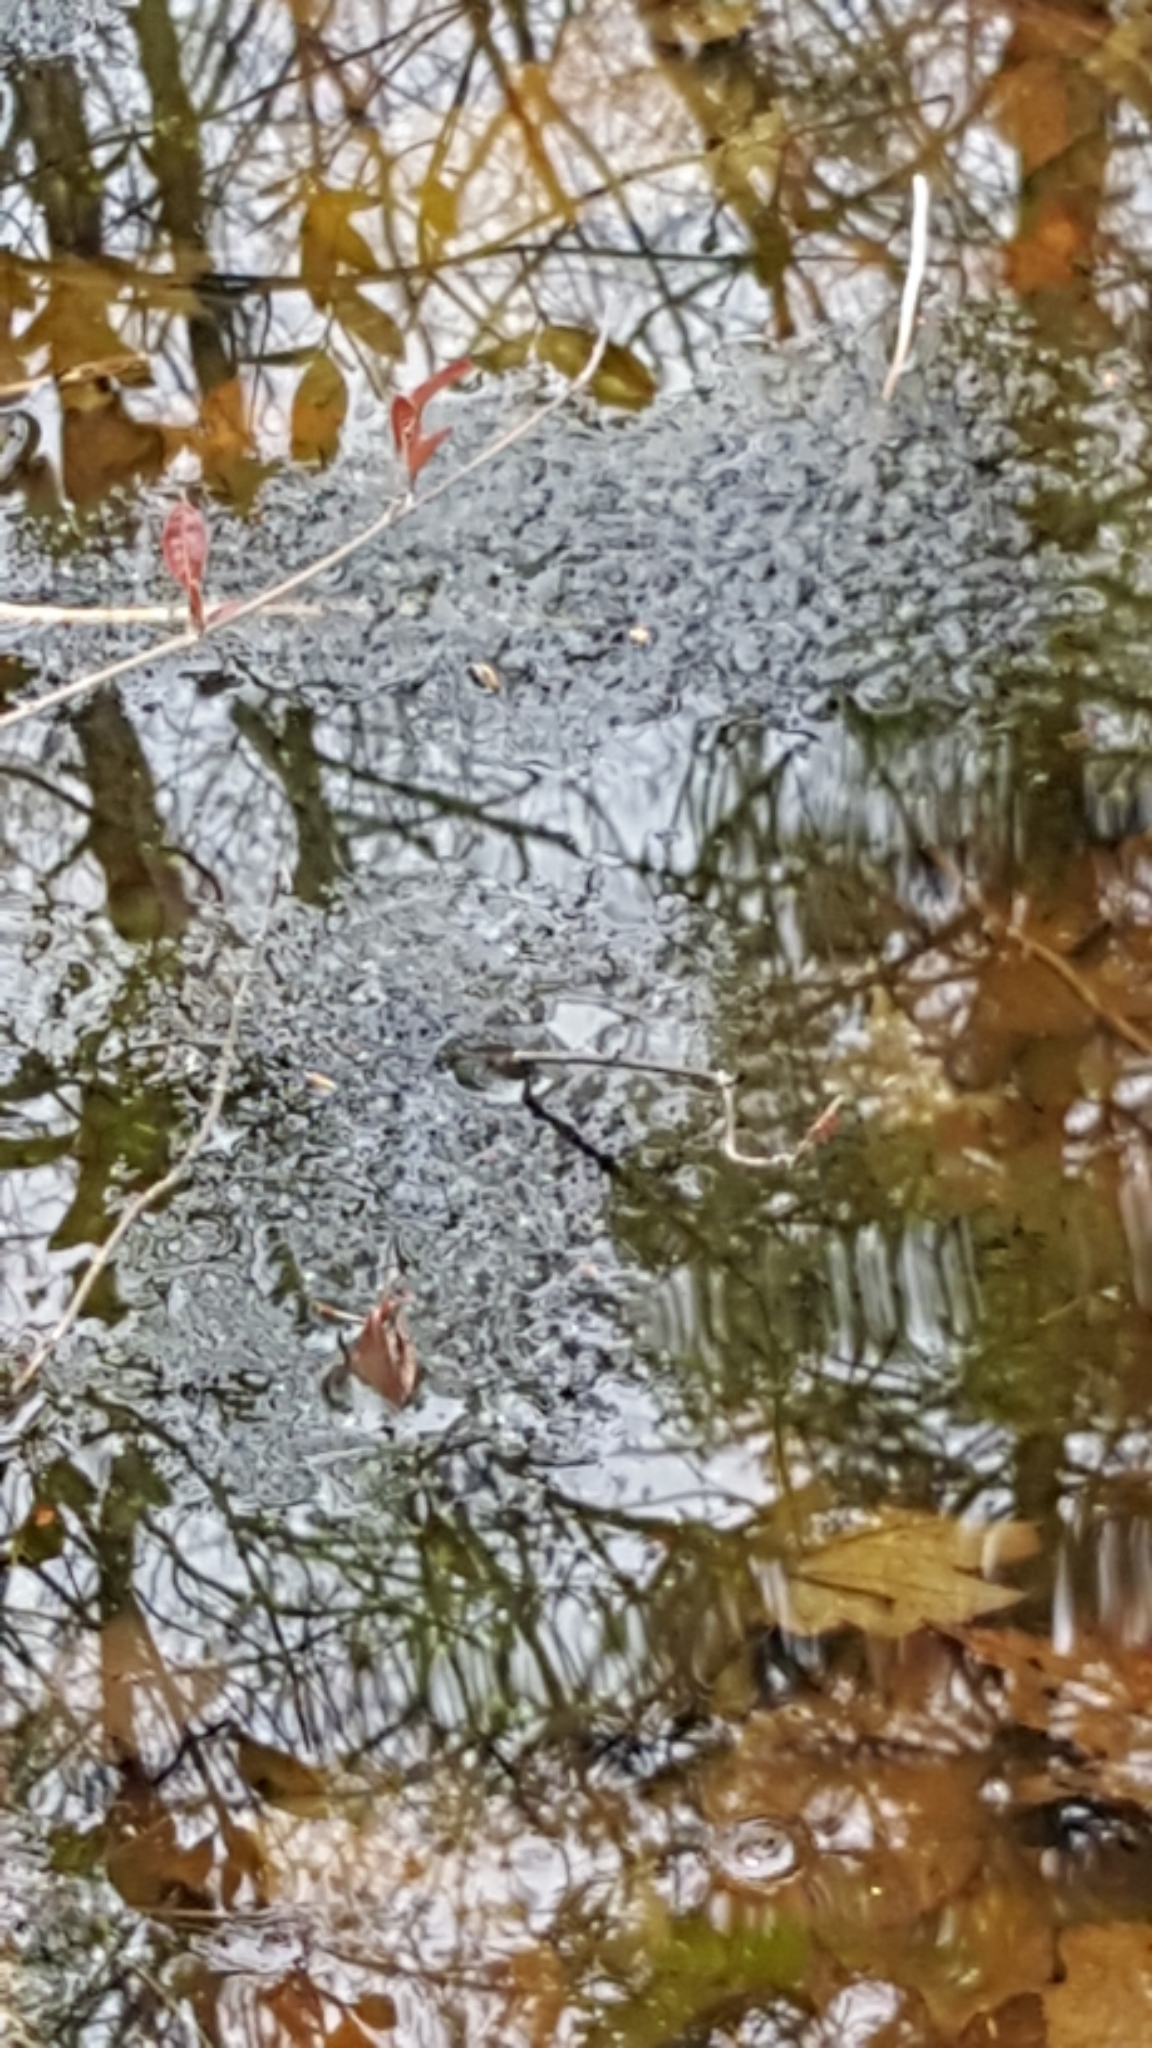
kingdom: Animalia
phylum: Chordata
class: Amphibia
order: Anura
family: Ranidae
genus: Lithobates
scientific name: Lithobates sylvaticus
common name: Wood frog
